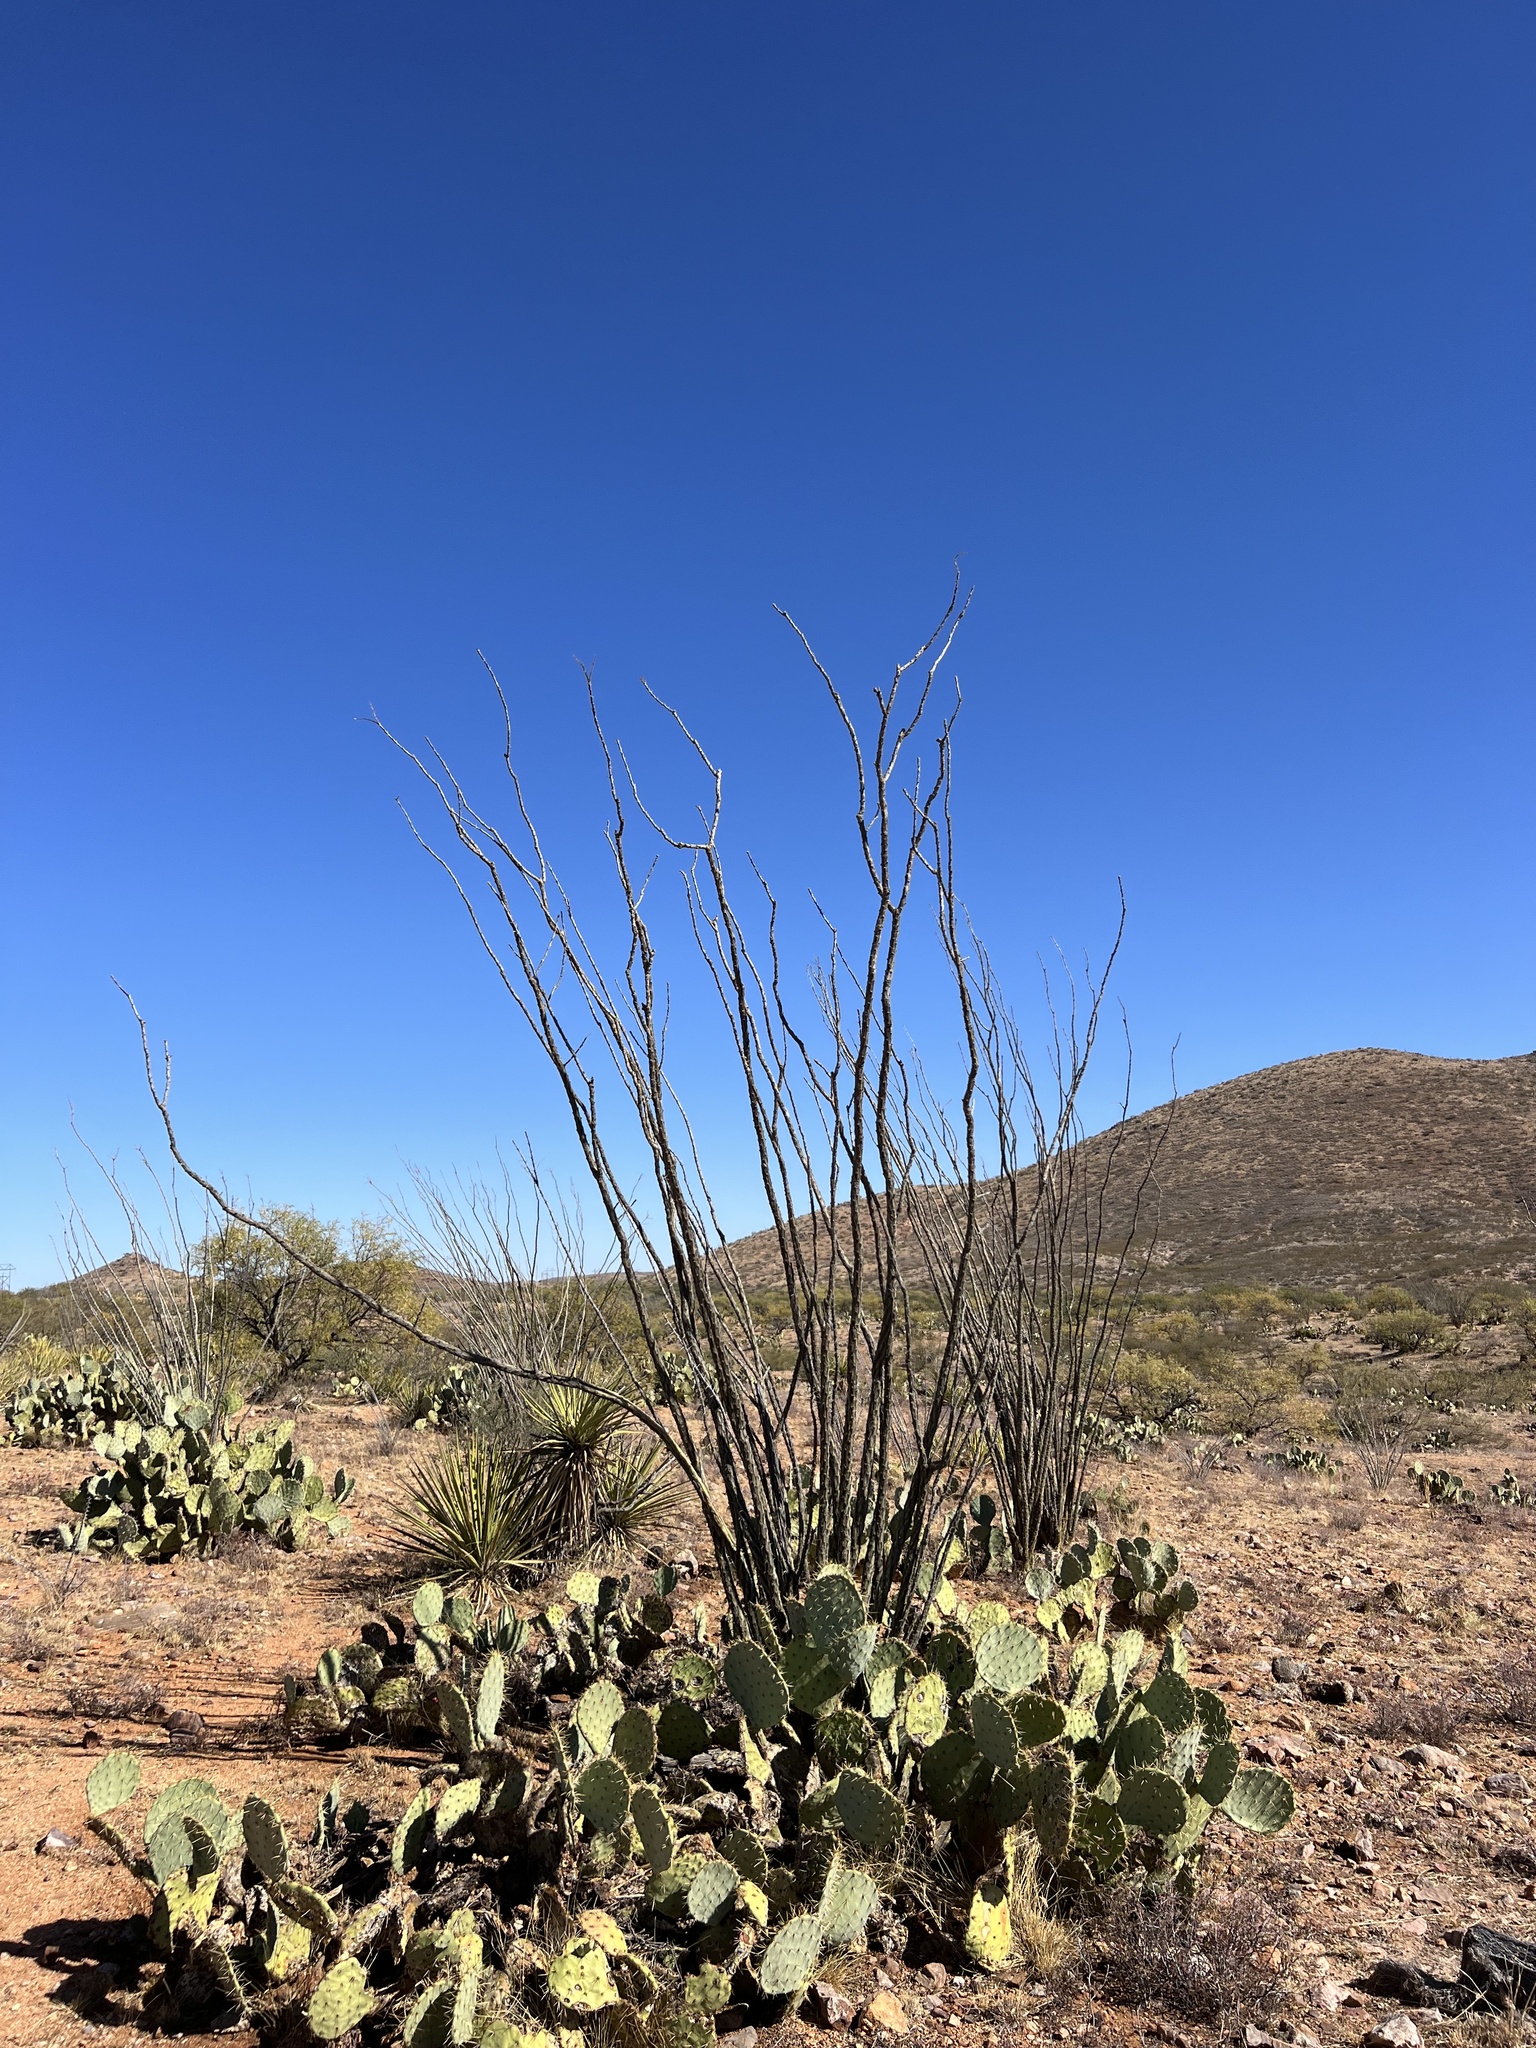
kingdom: Plantae
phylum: Tracheophyta
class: Magnoliopsida
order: Ericales
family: Fouquieriaceae
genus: Fouquieria
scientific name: Fouquieria splendens
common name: Vine-cactus
